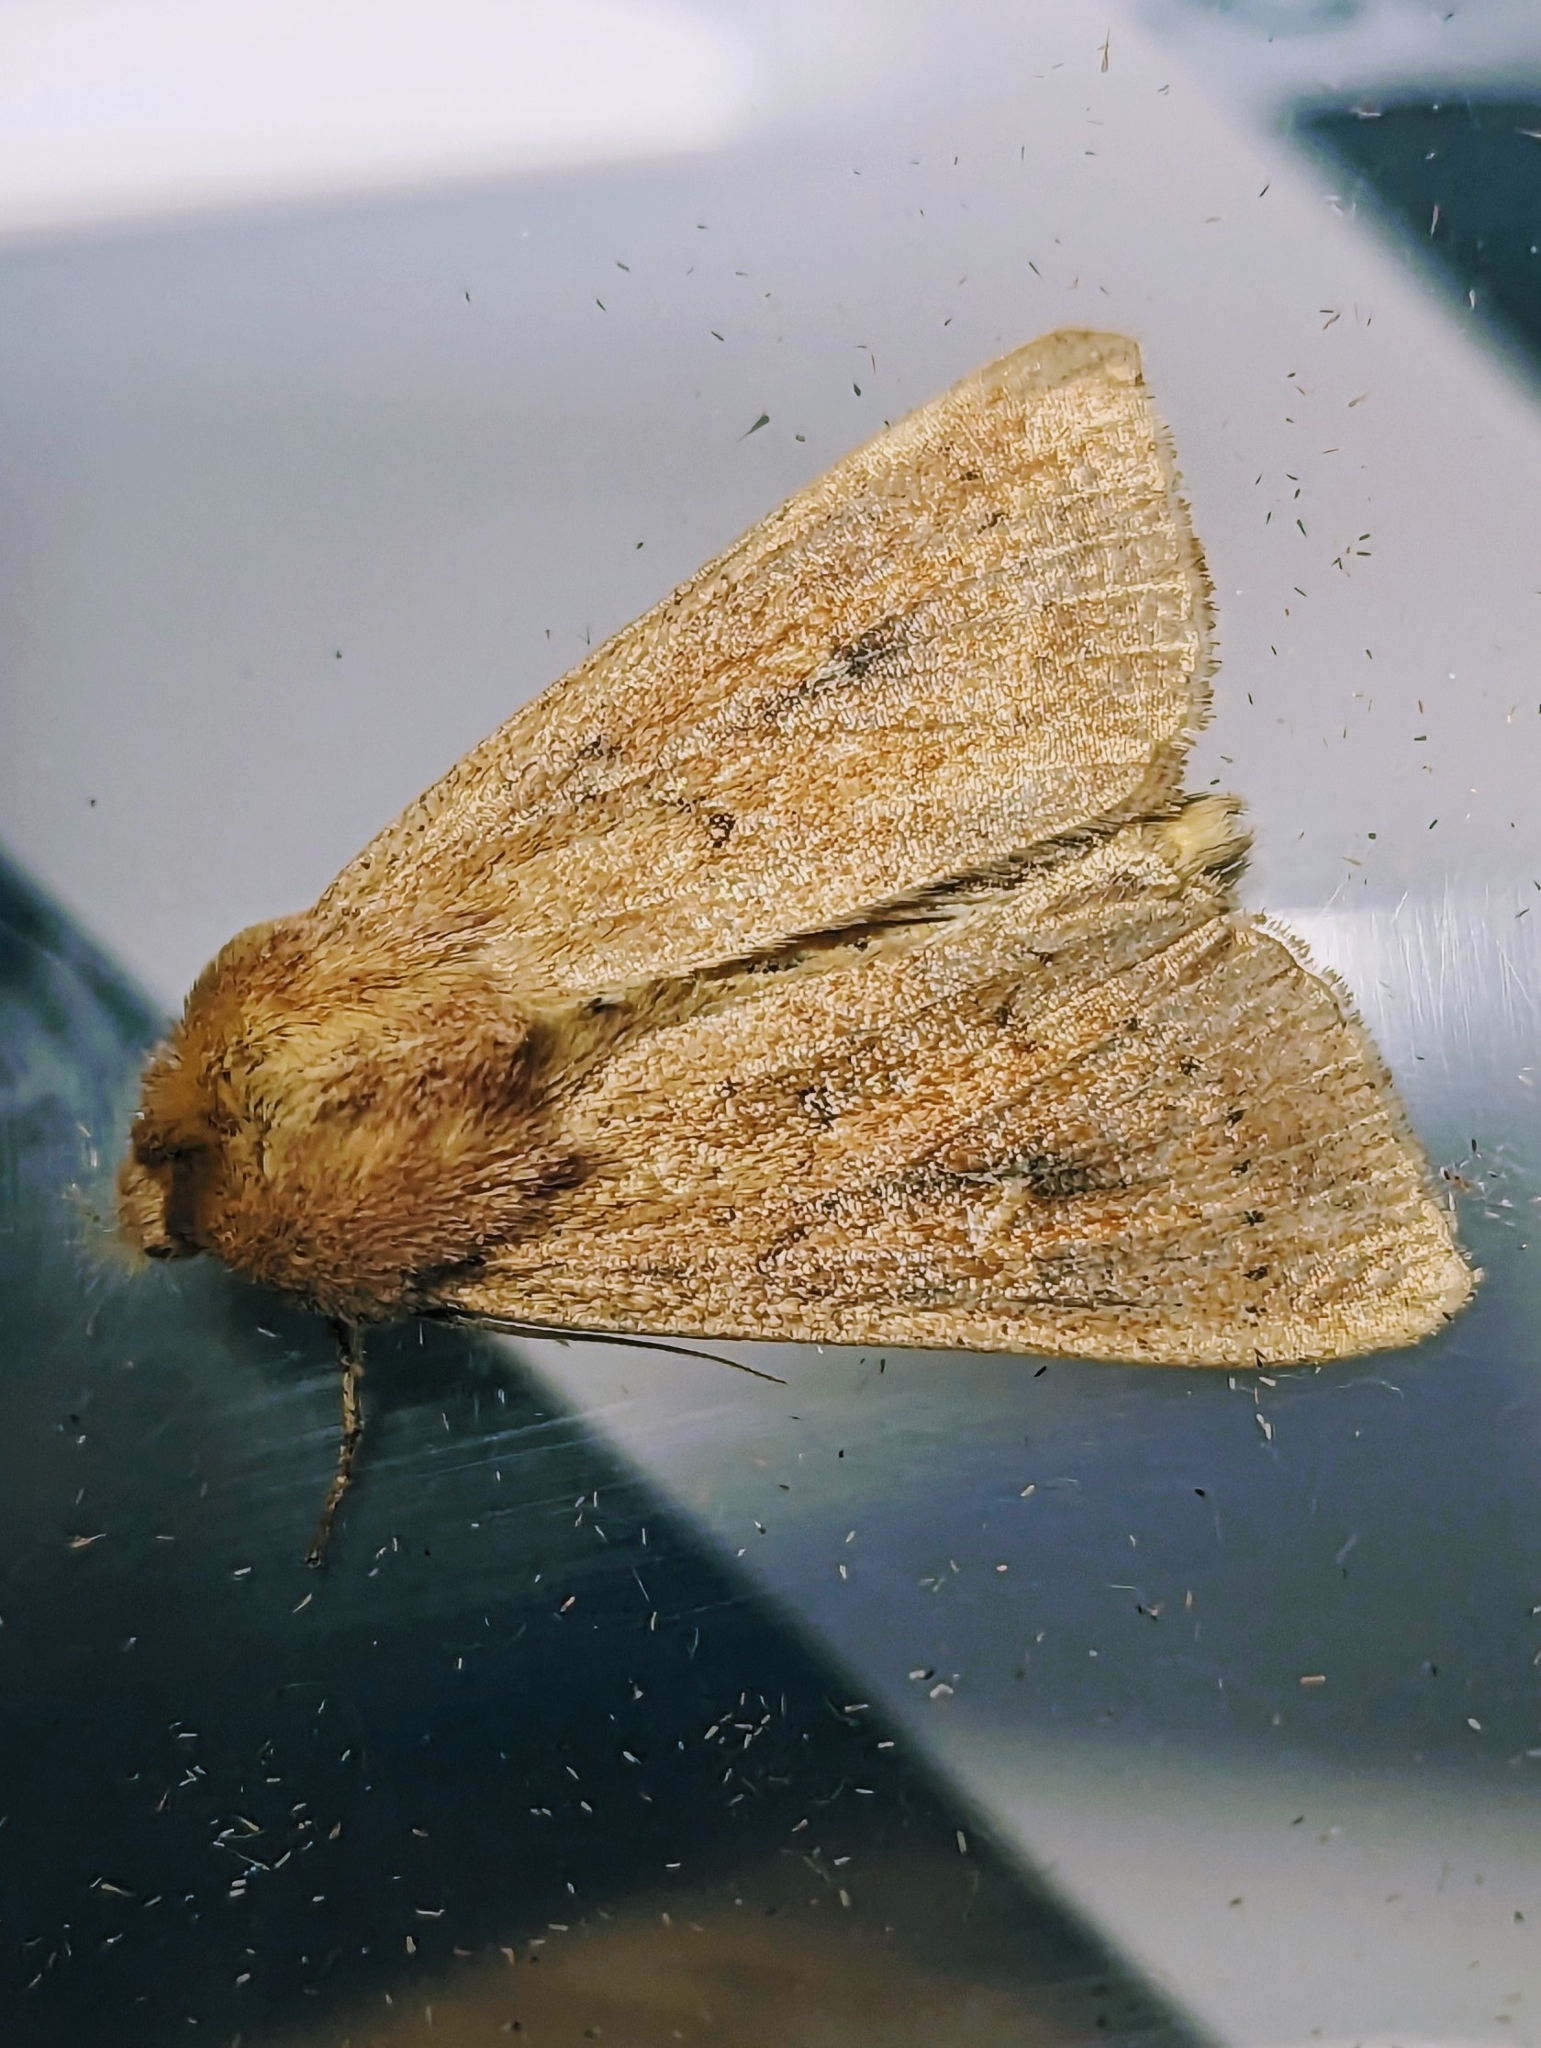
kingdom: Animalia
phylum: Arthropoda
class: Insecta
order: Lepidoptera
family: Noctuidae
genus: Mythimna
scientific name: Mythimna ferrago
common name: Clay
